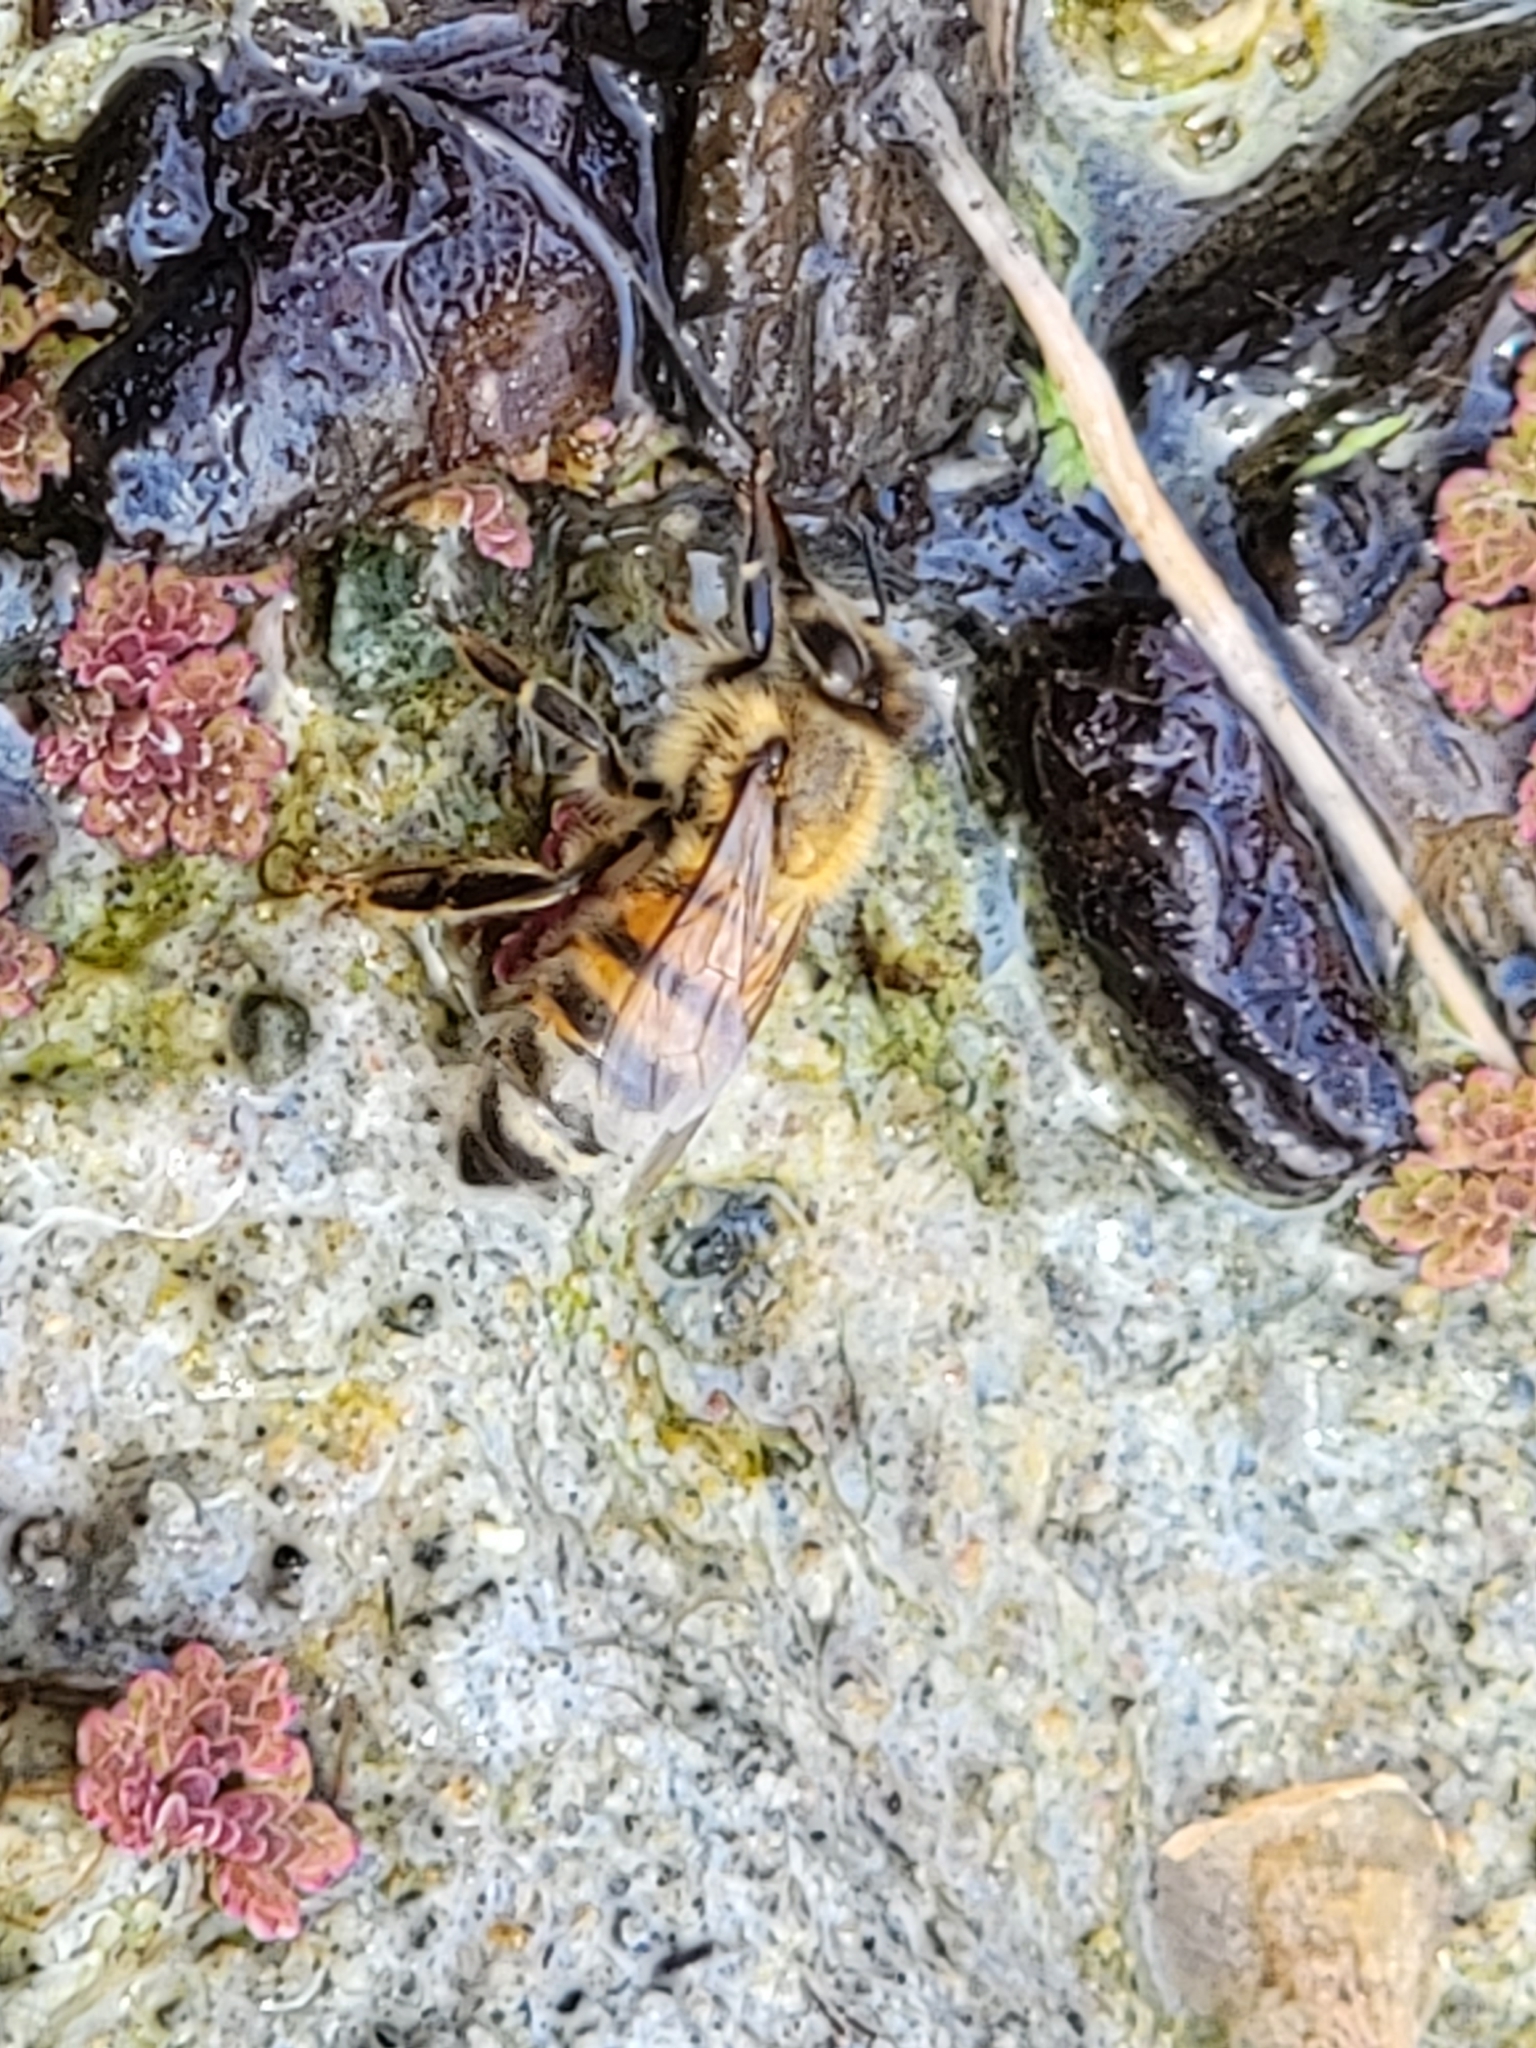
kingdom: Animalia
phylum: Arthropoda
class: Insecta
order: Hymenoptera
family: Apidae
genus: Apis
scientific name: Apis mellifera
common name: Honey bee
